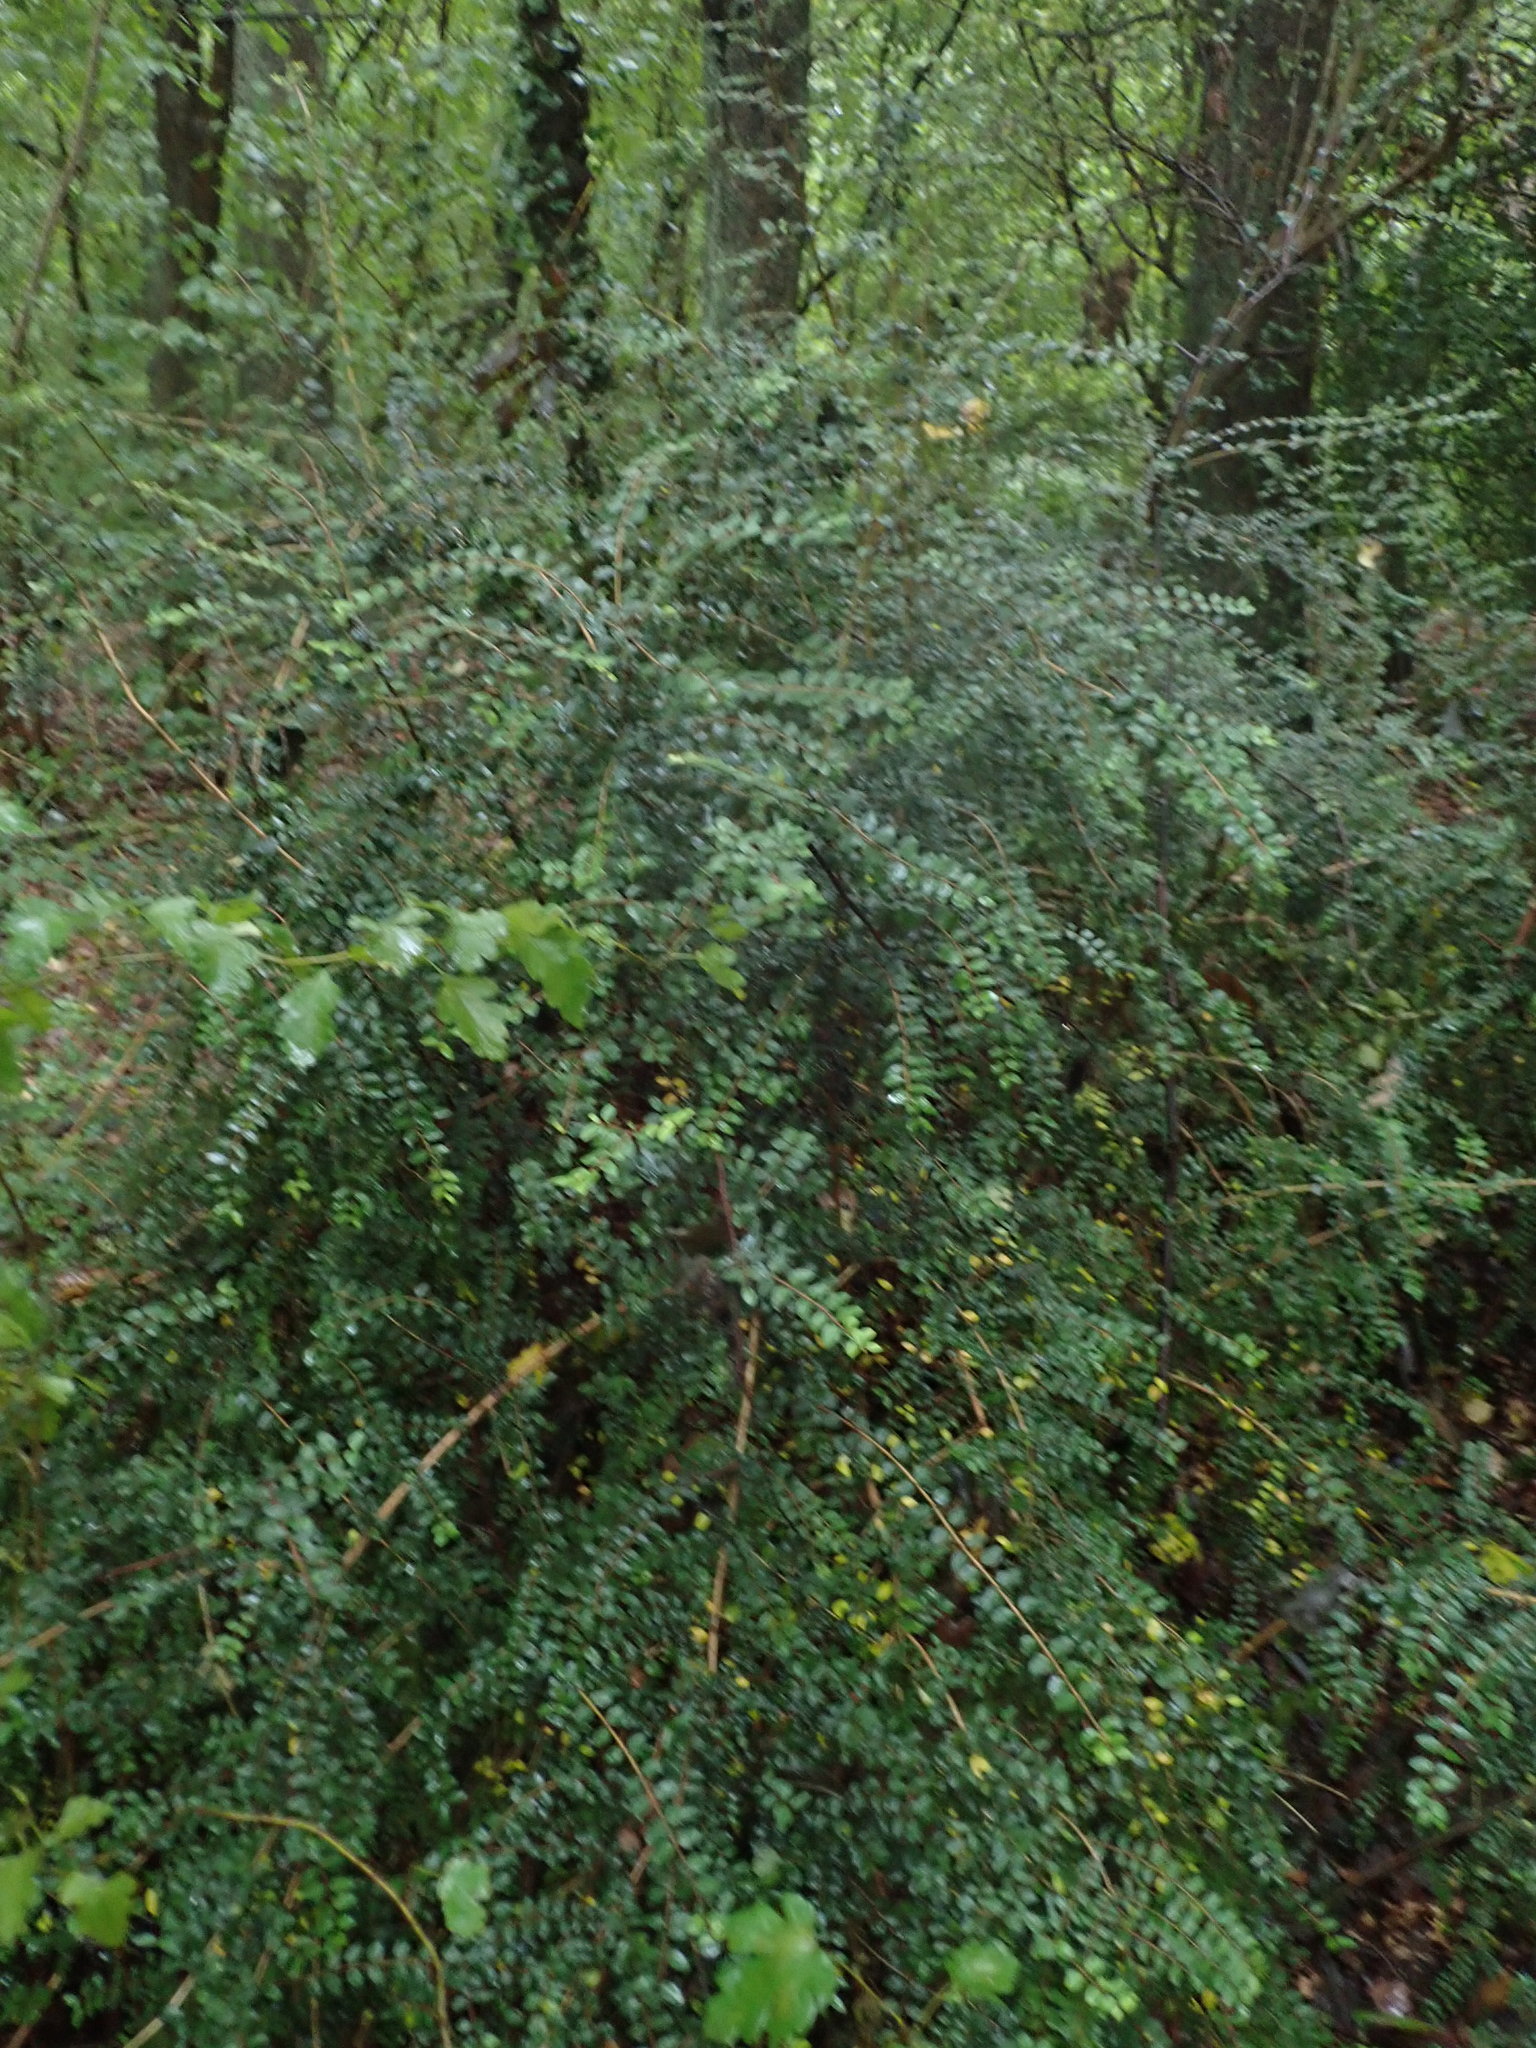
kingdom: Plantae
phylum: Tracheophyta
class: Magnoliopsida
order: Dipsacales
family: Caprifoliaceae
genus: Lonicera
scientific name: Lonicera pileata
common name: Box-leaved honeysuckle
